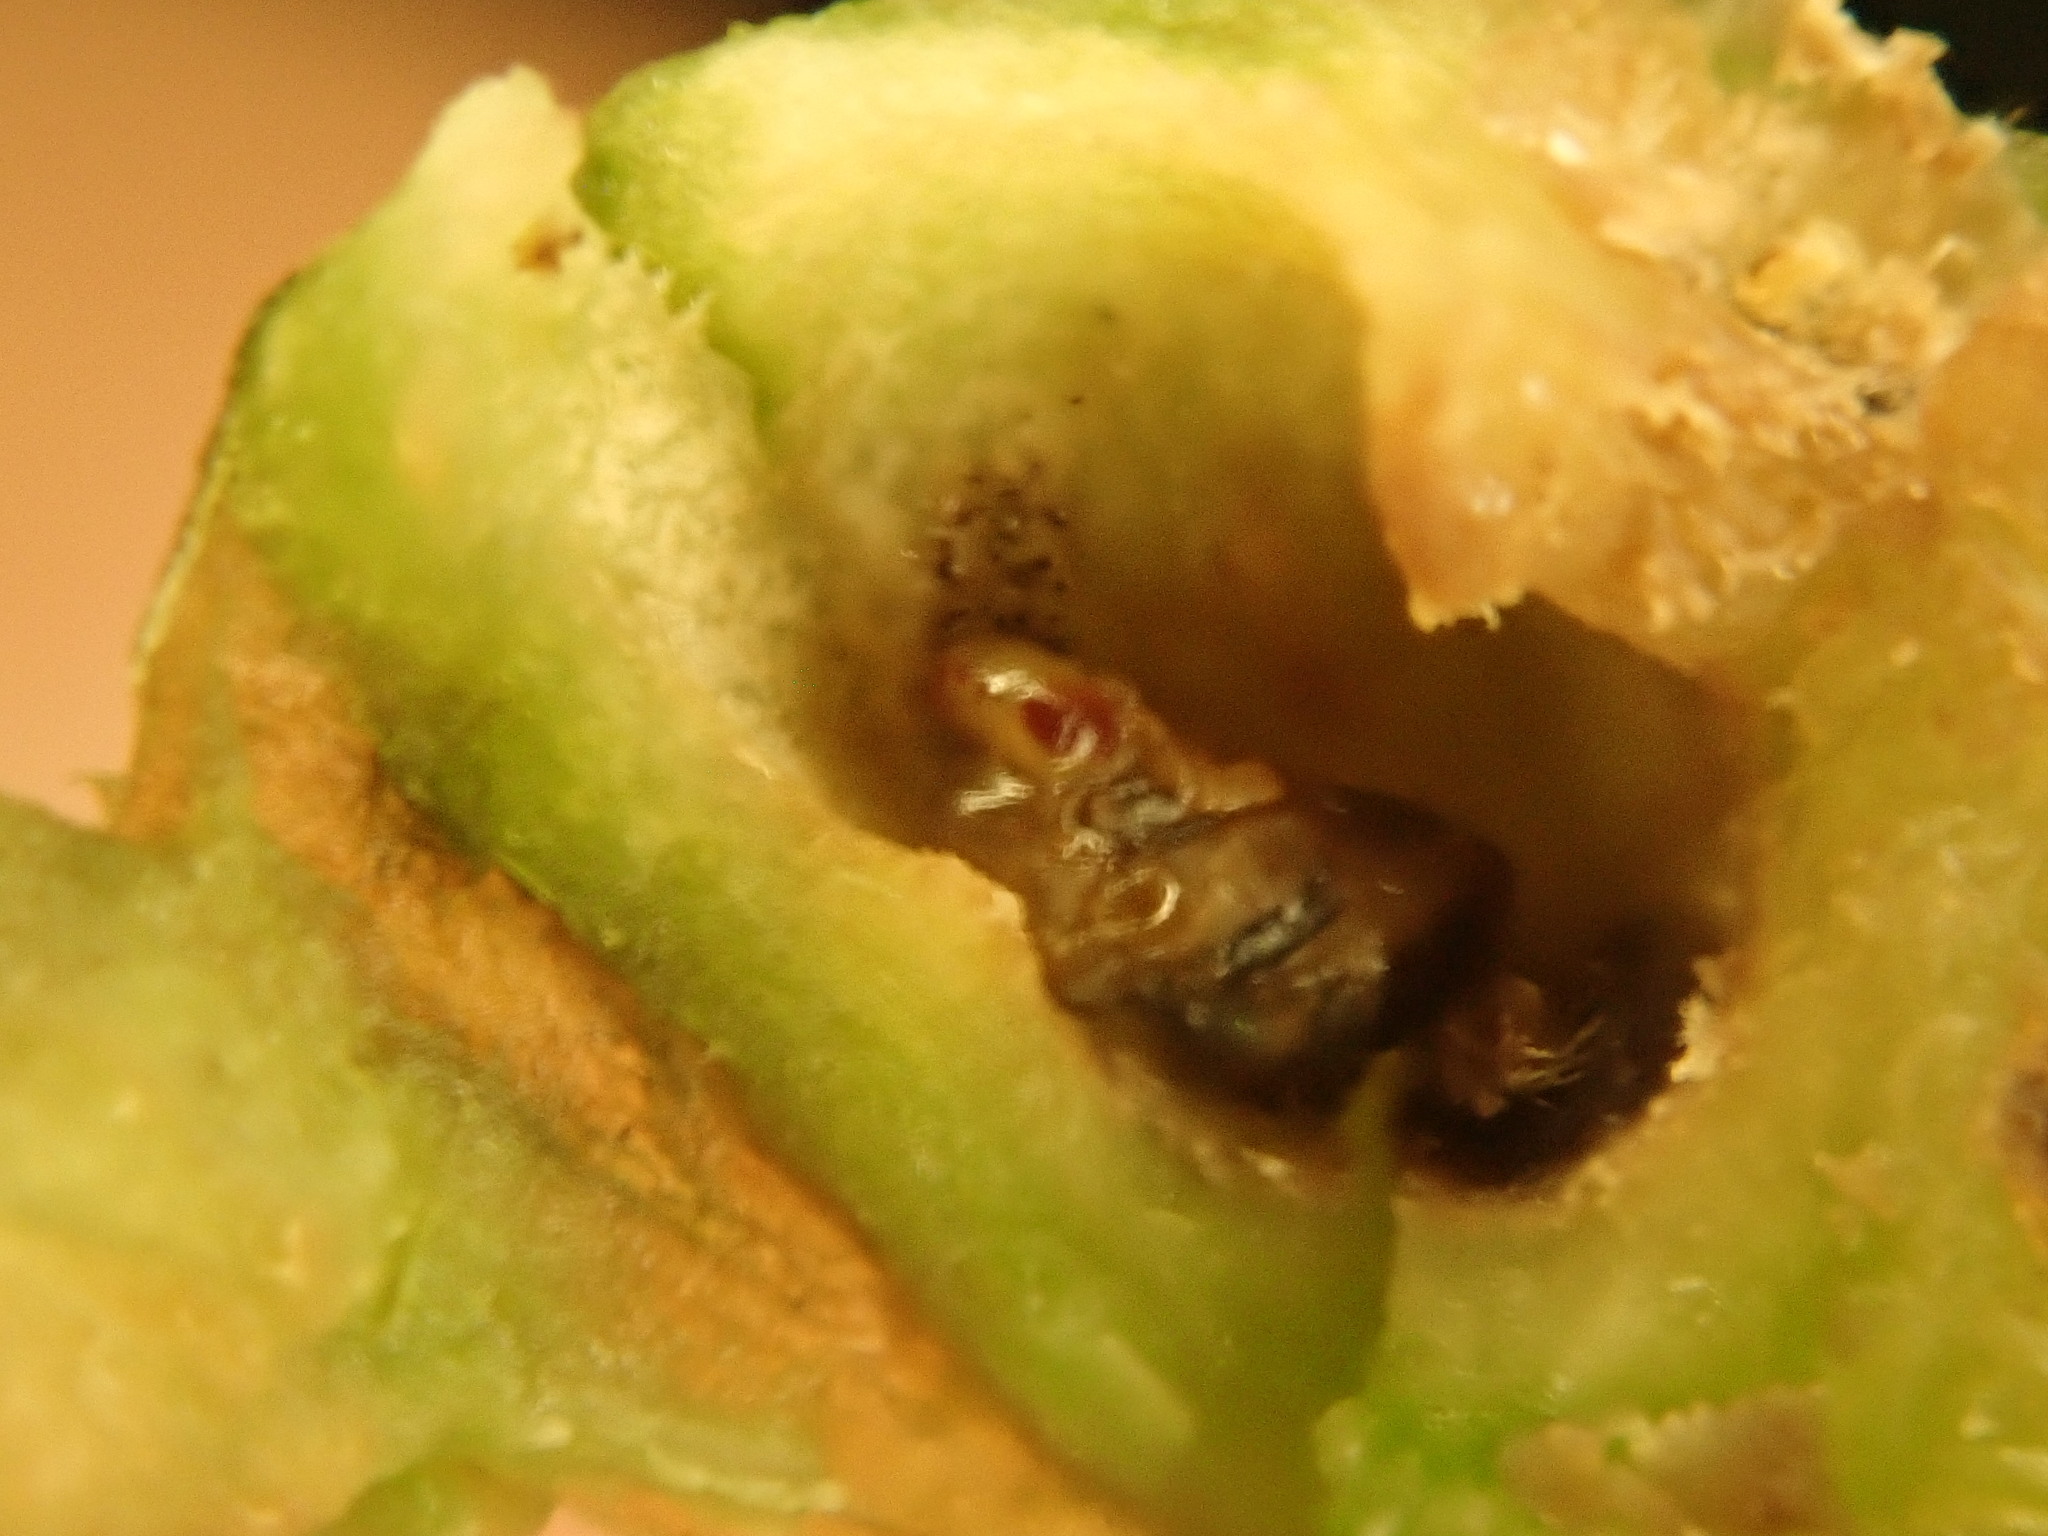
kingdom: Animalia
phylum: Arthropoda
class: Insecta
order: Diptera
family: Cecidomyiidae
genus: Asphondylia
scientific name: Asphondylia eupatorii
